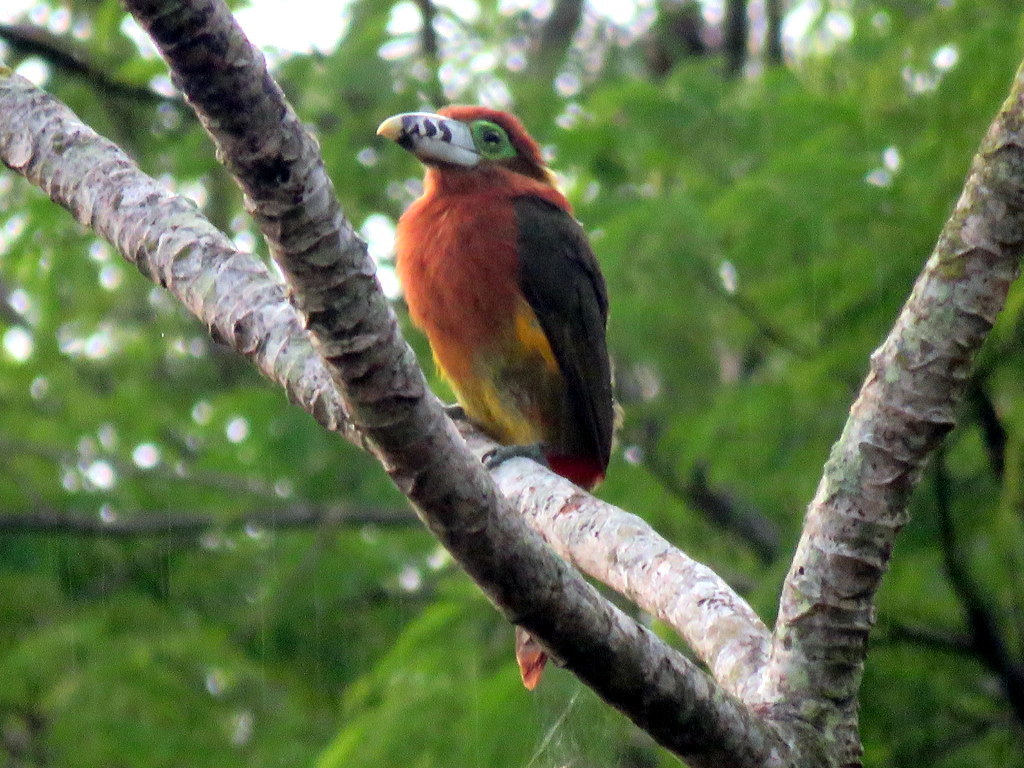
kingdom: Animalia
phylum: Chordata
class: Aves
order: Piciformes
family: Ramphastidae
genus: Selenidera
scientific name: Selenidera maculirostris
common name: Spot-billed toucanet
